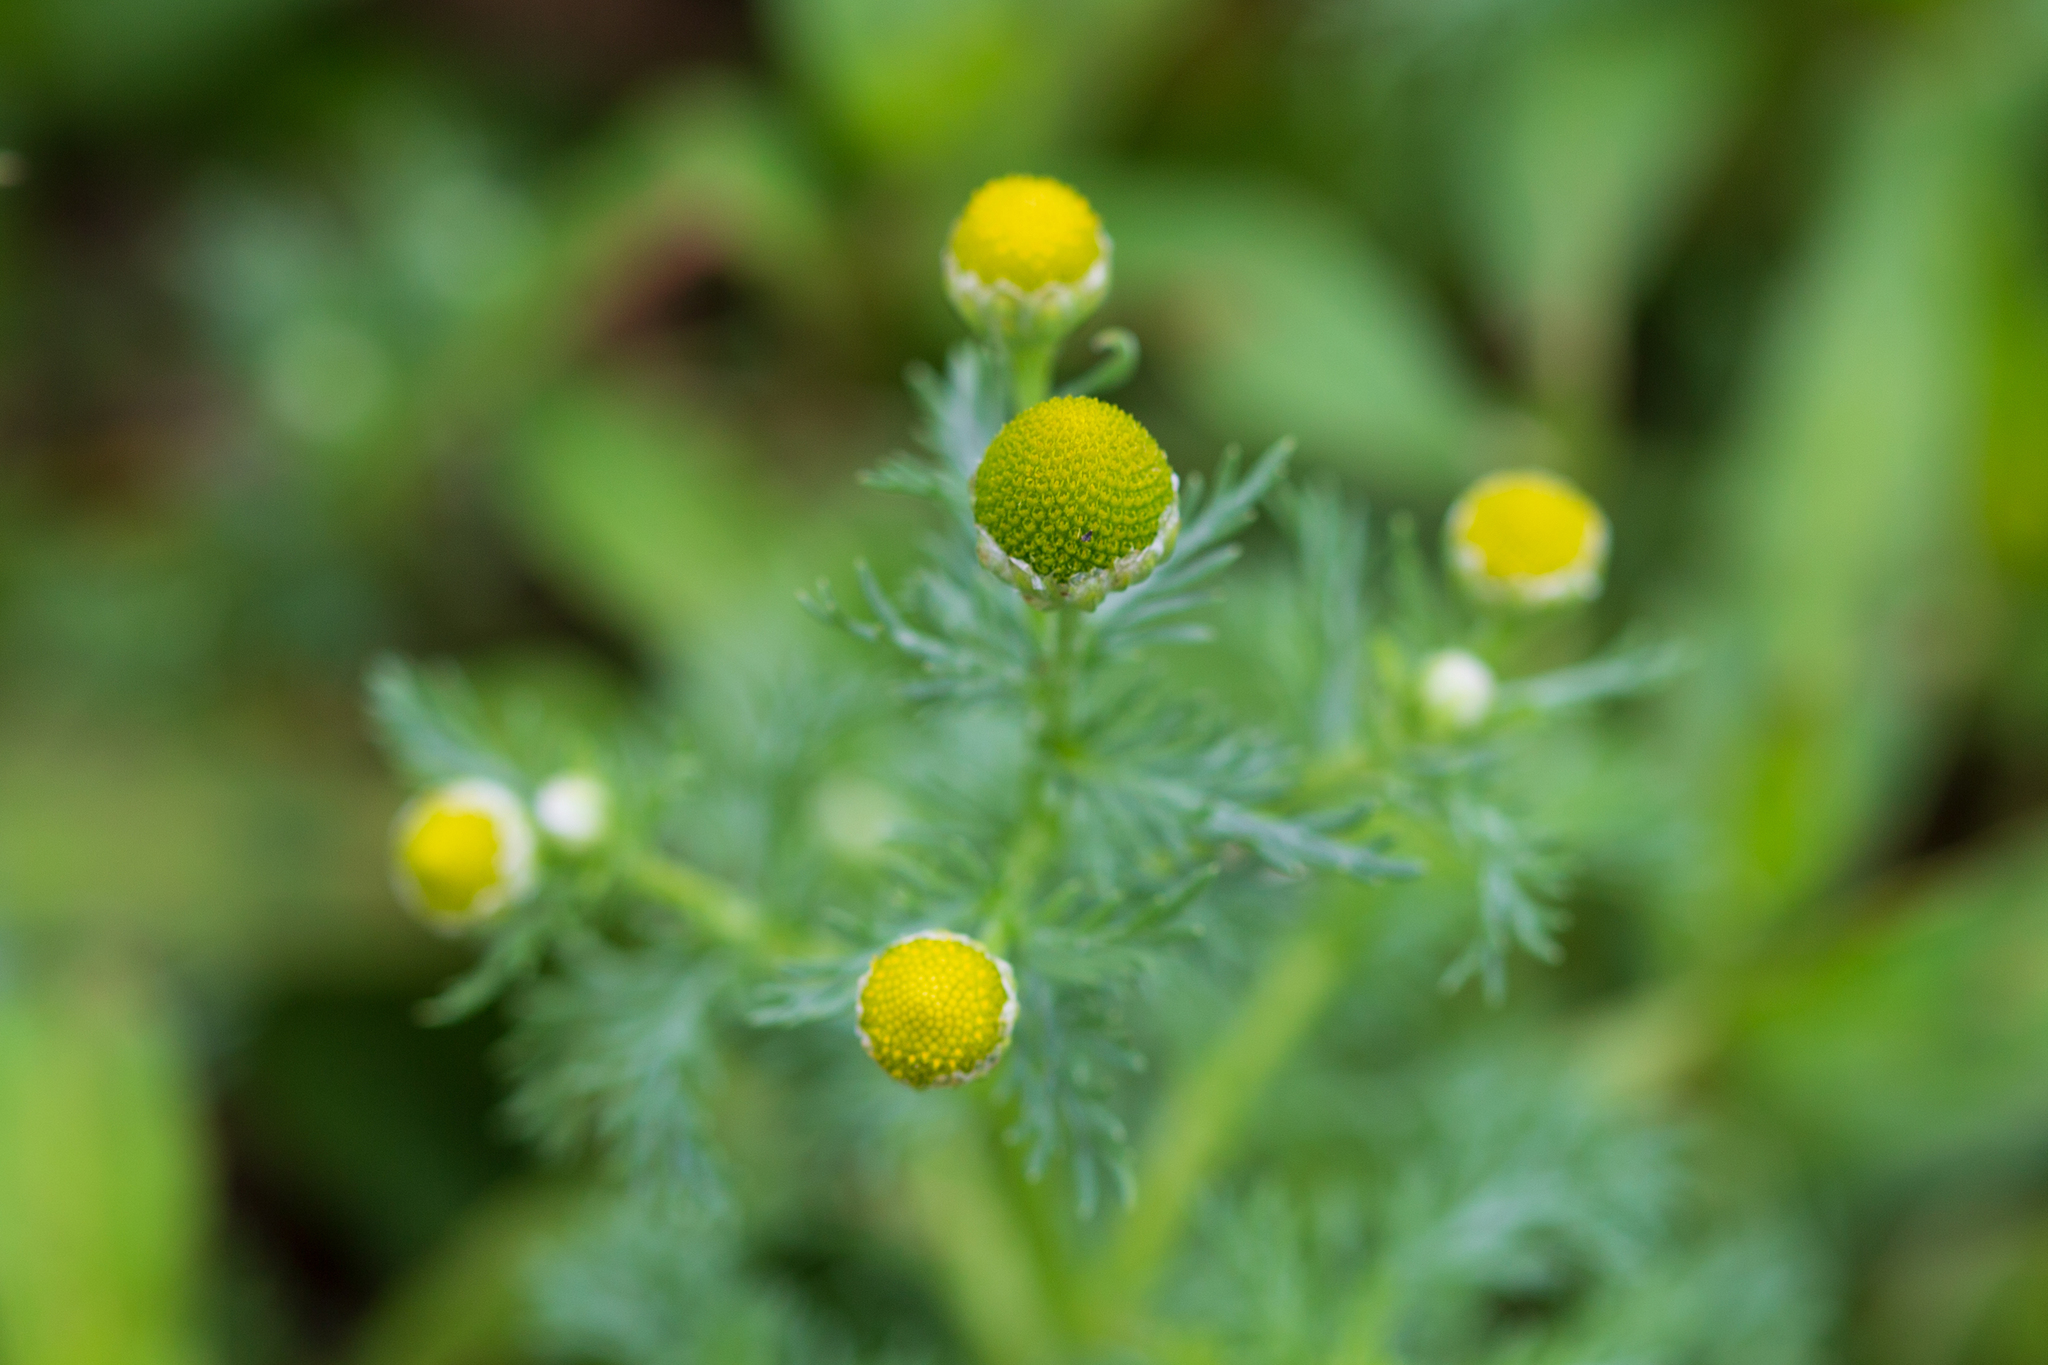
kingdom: Plantae
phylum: Tracheophyta
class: Magnoliopsida
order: Asterales
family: Asteraceae
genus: Matricaria
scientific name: Matricaria discoidea
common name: Disc mayweed
